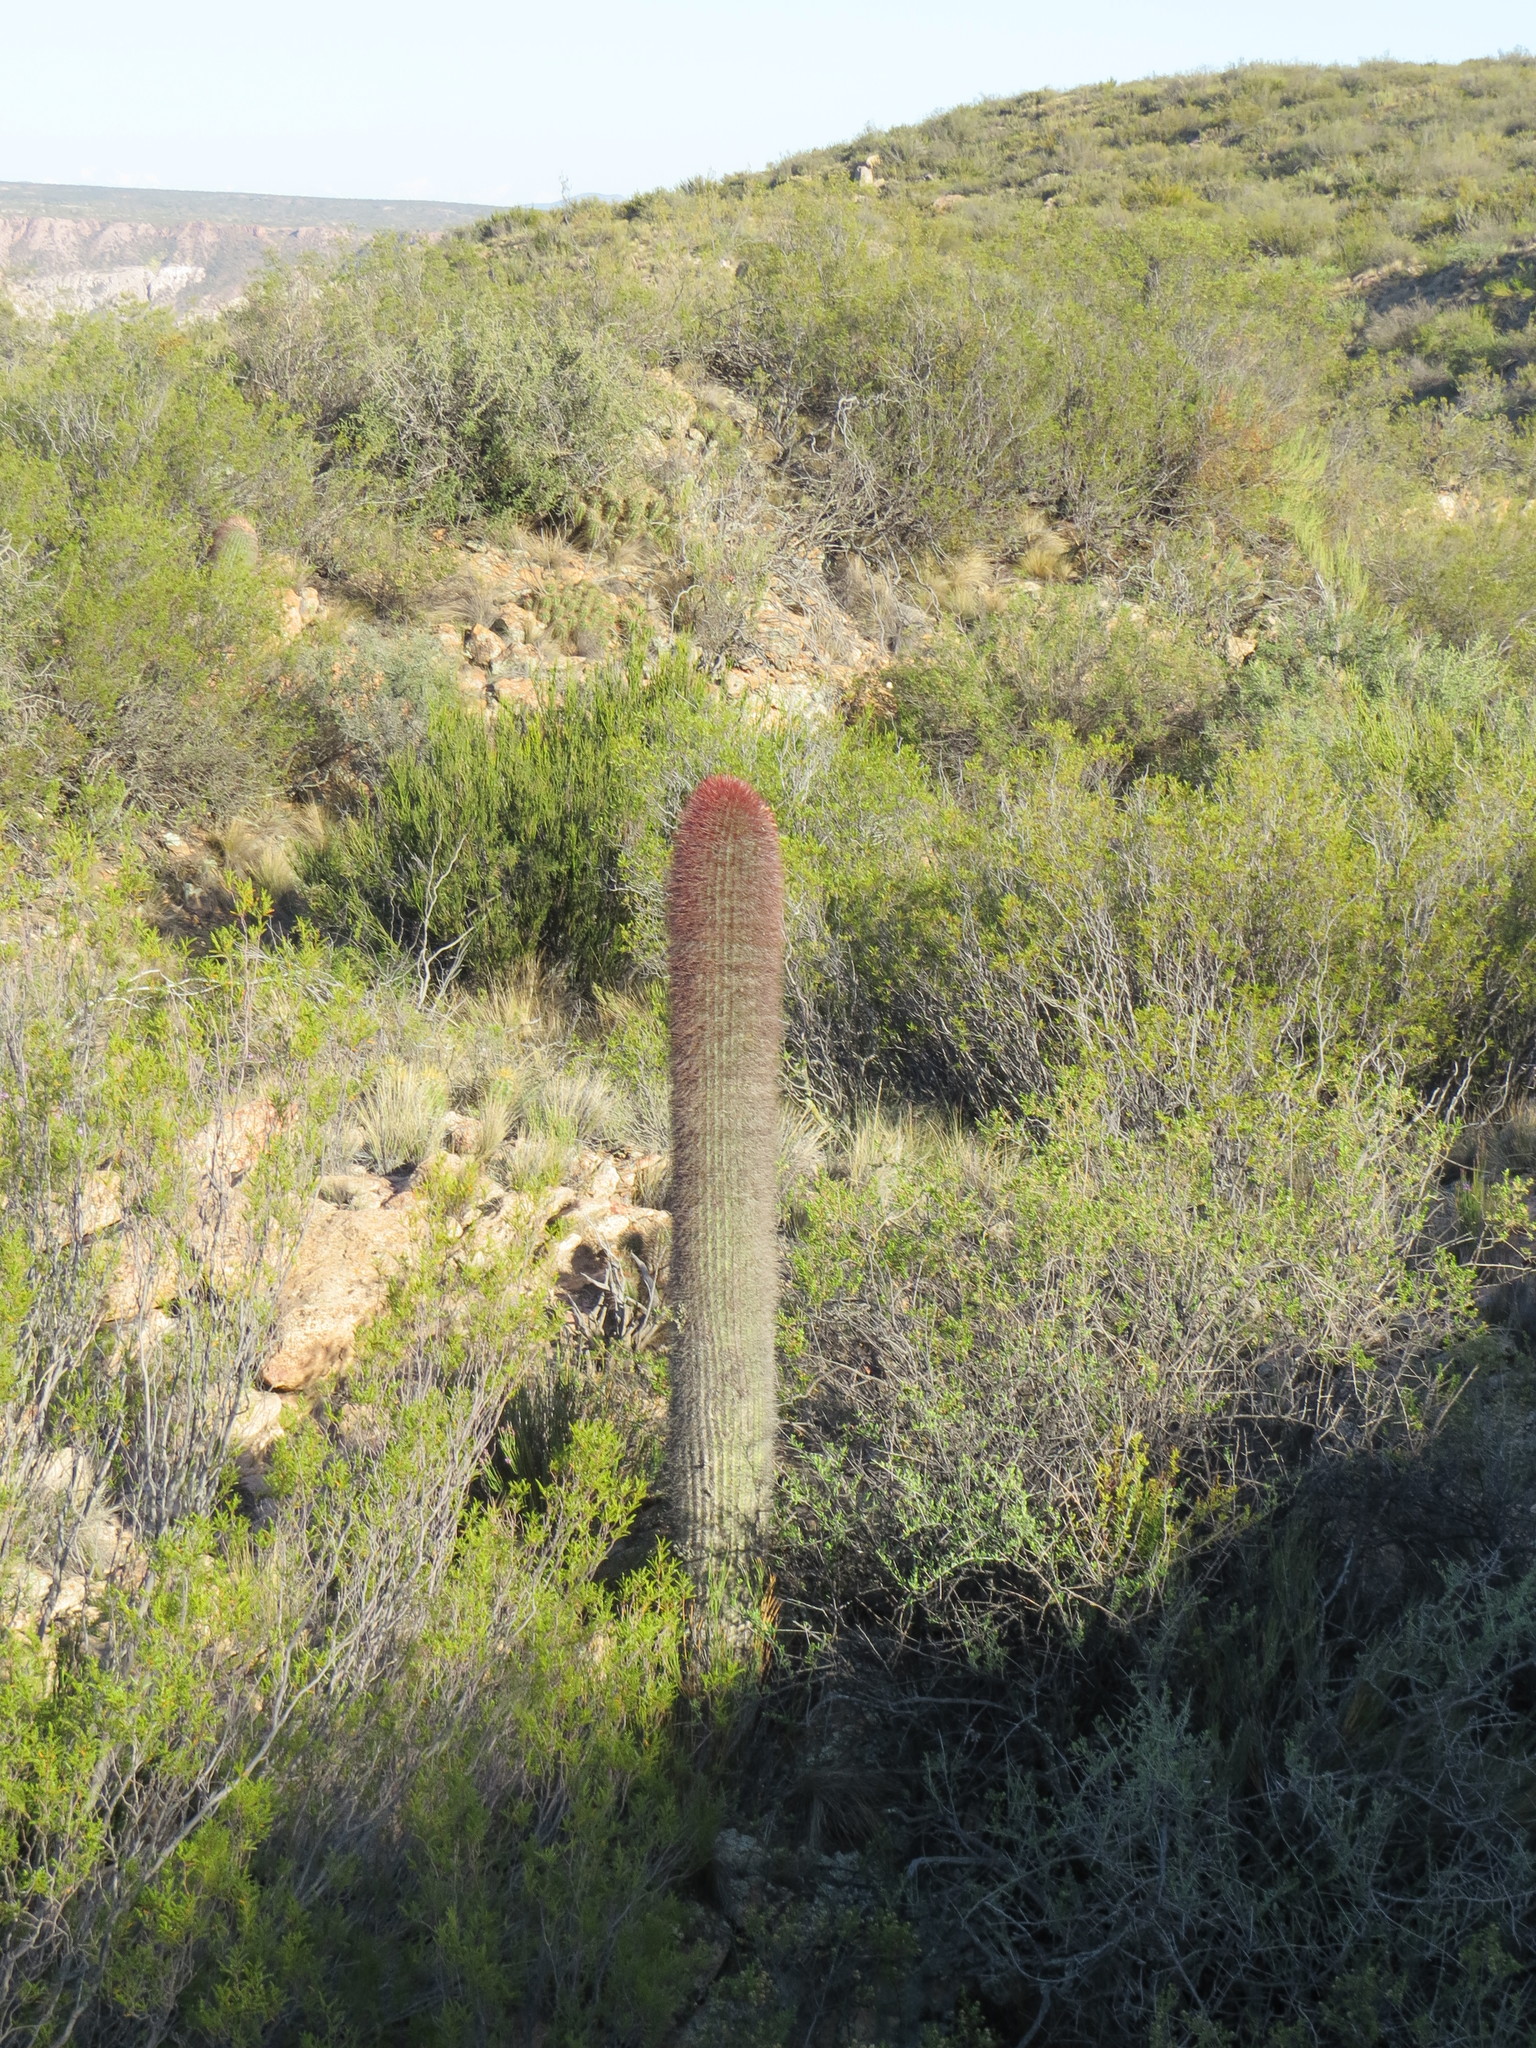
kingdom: Plantae
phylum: Tracheophyta
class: Magnoliopsida
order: Caryophyllales
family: Cactaceae
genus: Denmoza
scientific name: Denmoza rhodacantha
